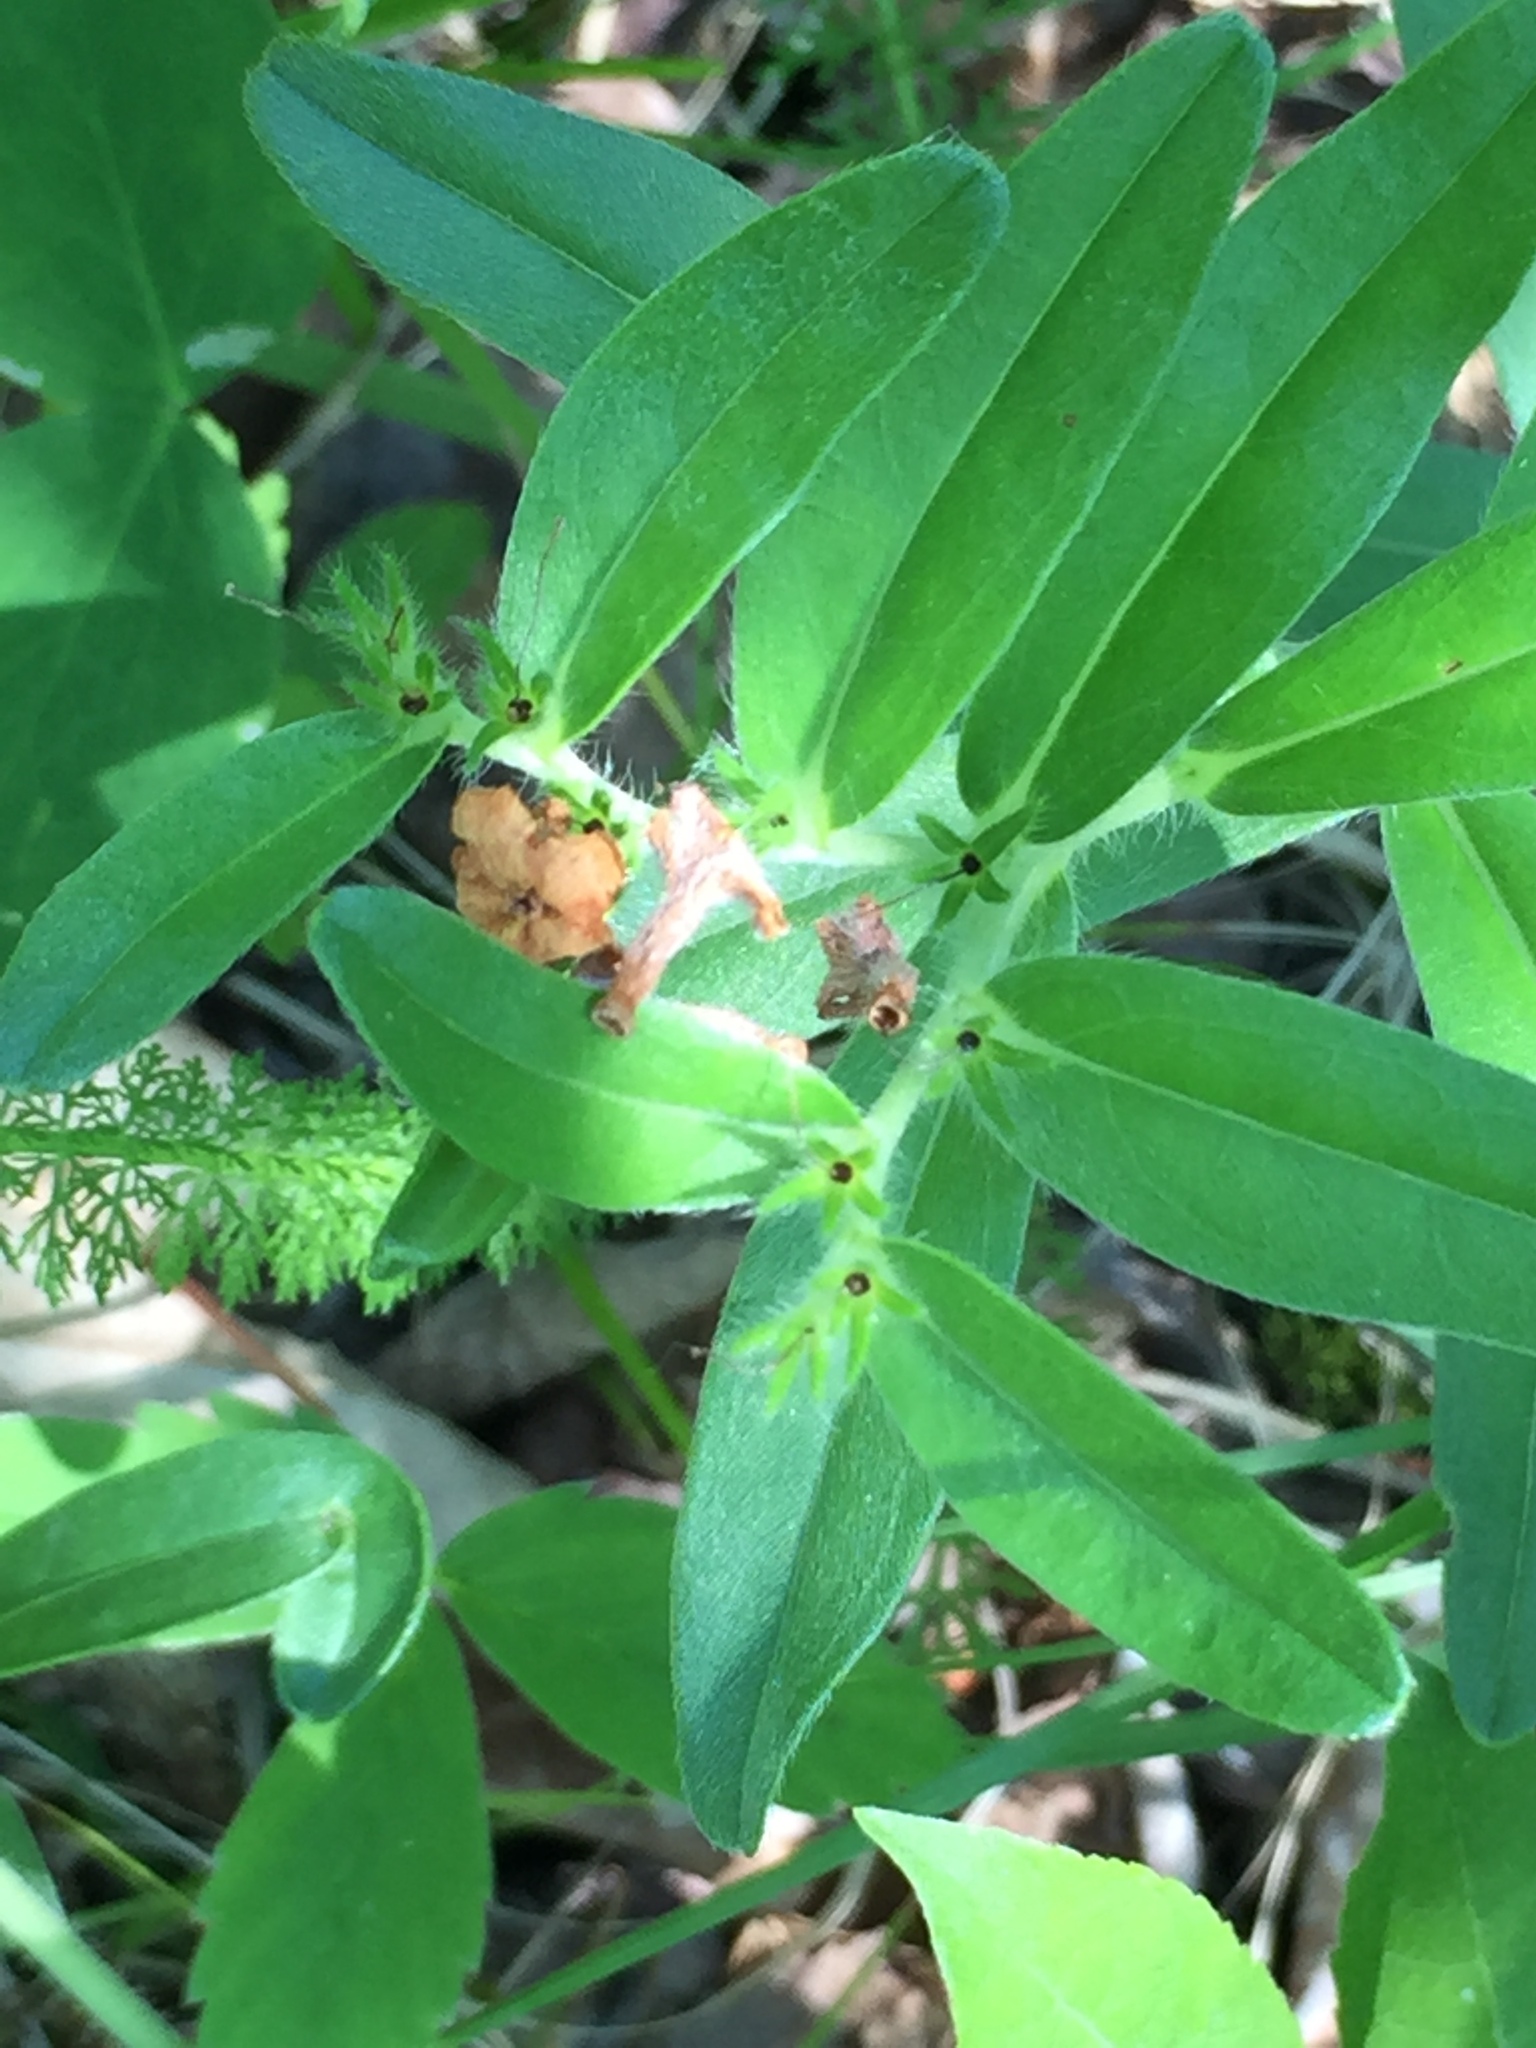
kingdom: Plantae
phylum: Tracheophyta
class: Magnoliopsida
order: Boraginales
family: Boraginaceae
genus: Lithospermum
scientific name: Lithospermum canescens
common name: Hoary puccoon
